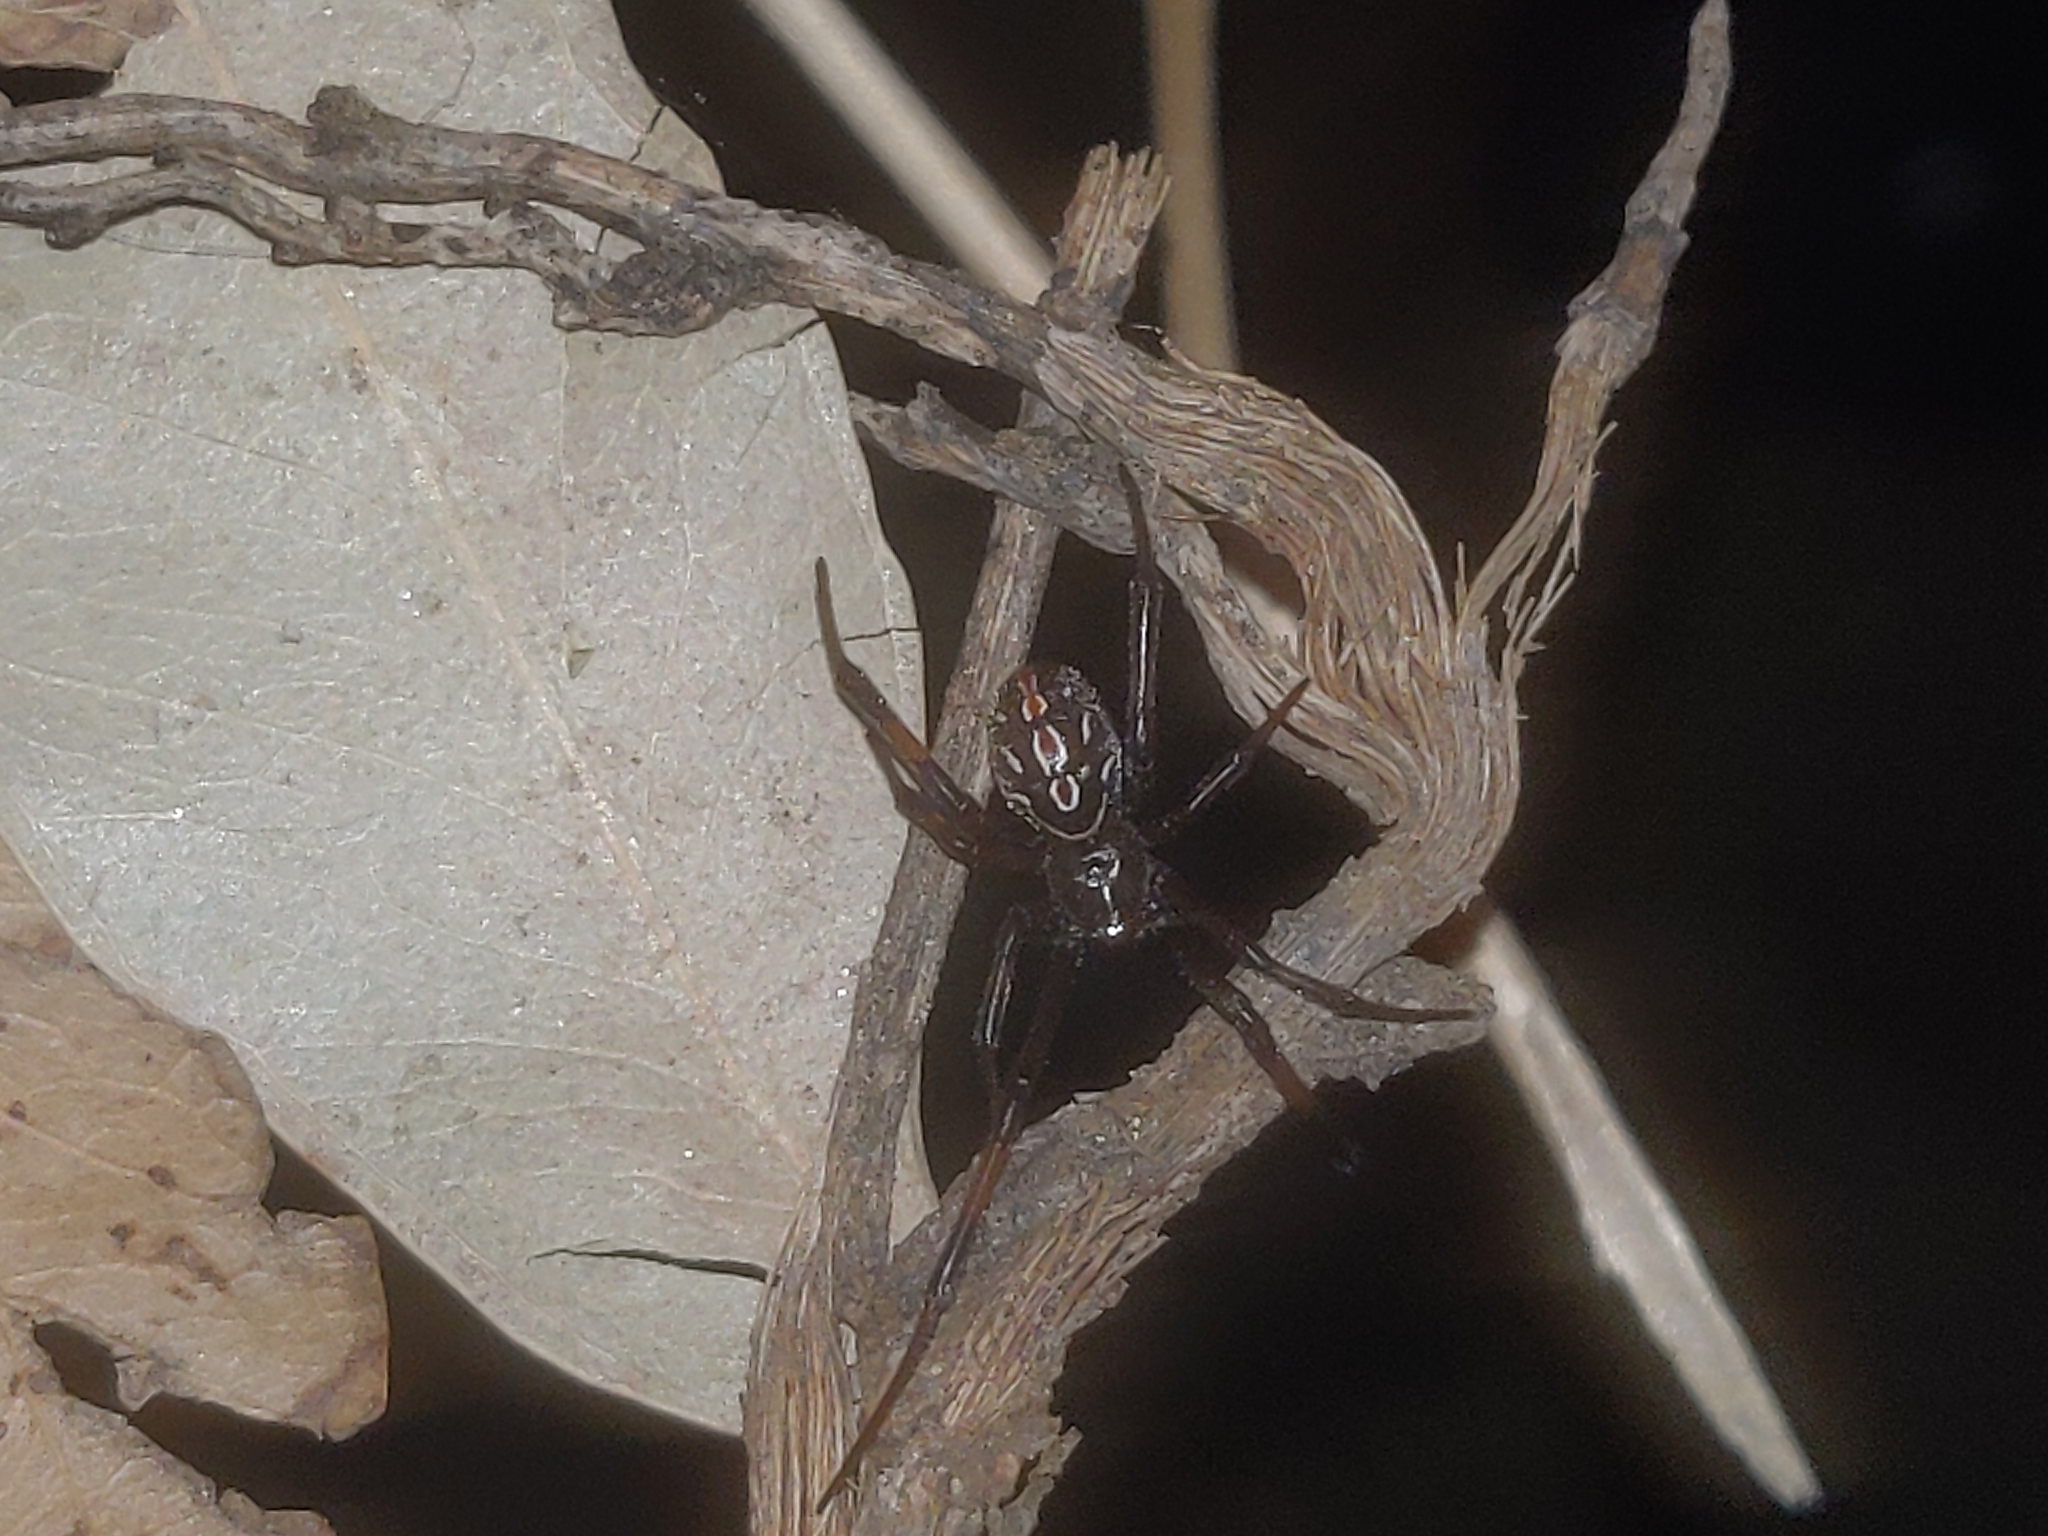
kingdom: Animalia
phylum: Arthropoda
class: Arachnida
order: Araneae
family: Theridiidae
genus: Latrodectus
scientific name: Latrodectus hesperus
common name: Western black widow
